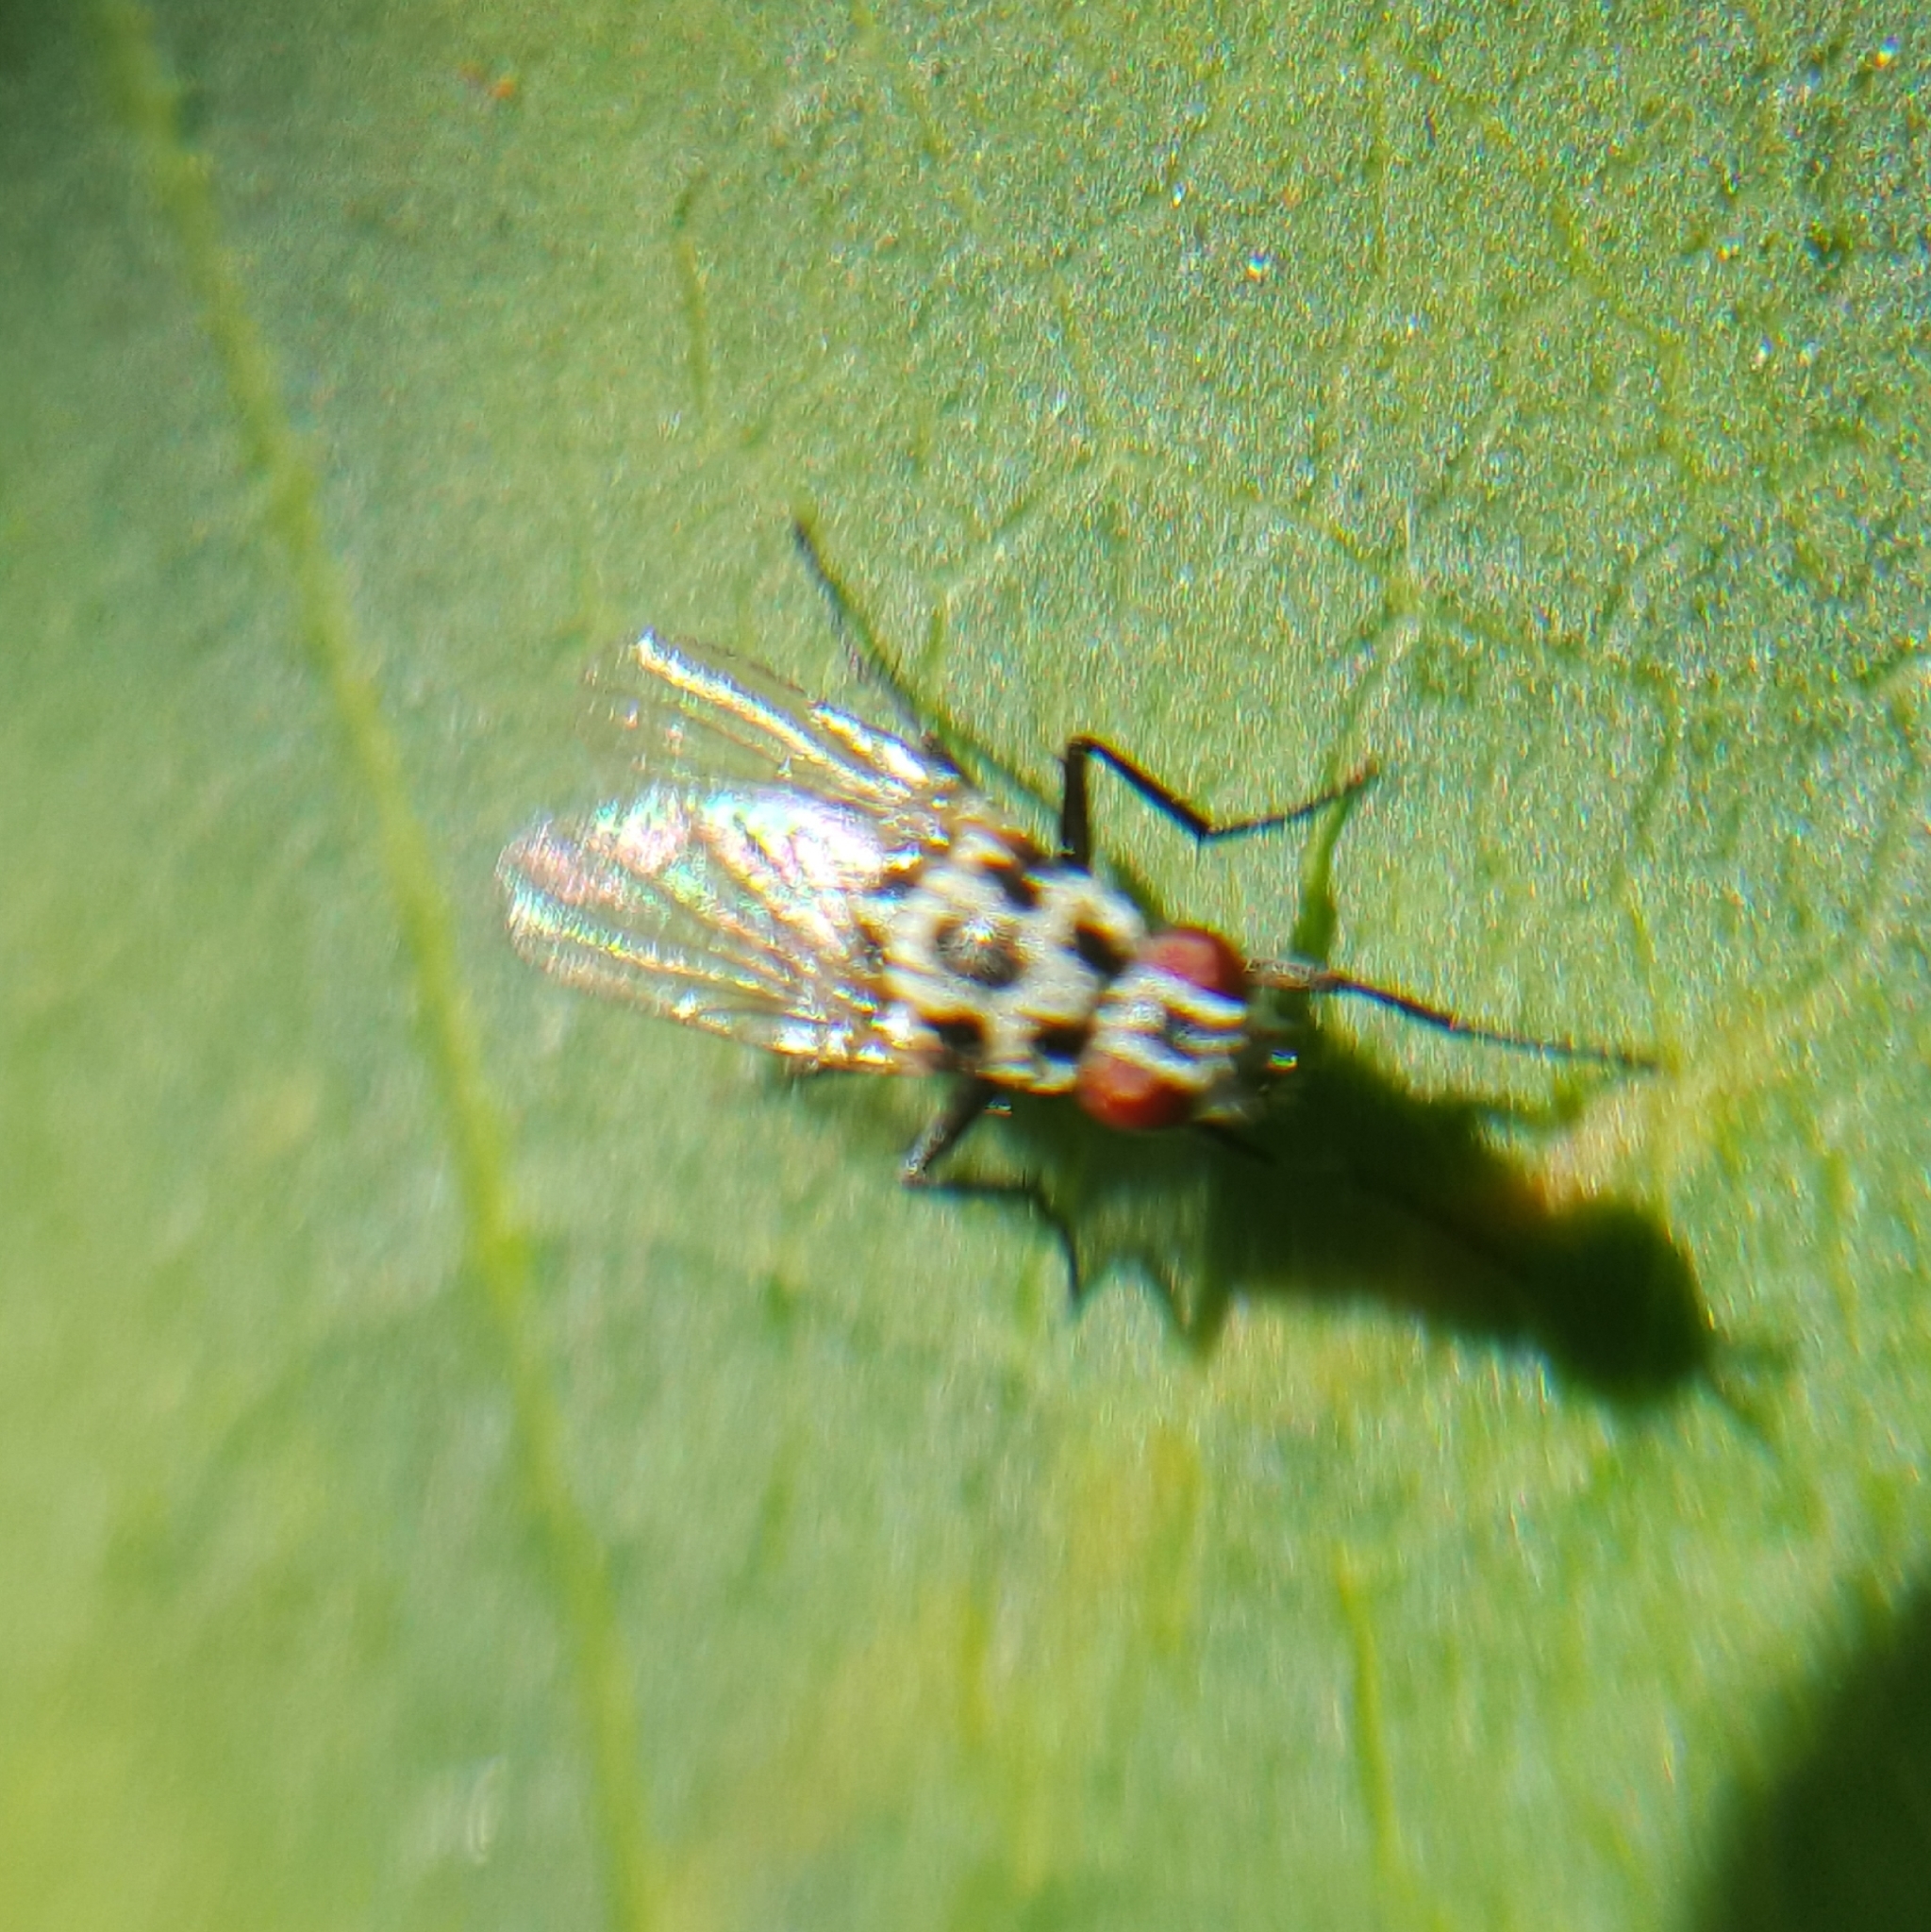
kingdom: Animalia
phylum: Arthropoda
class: Insecta
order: Diptera
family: Anthomyiidae
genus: Anthomyia
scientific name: Anthomyia procellaris
